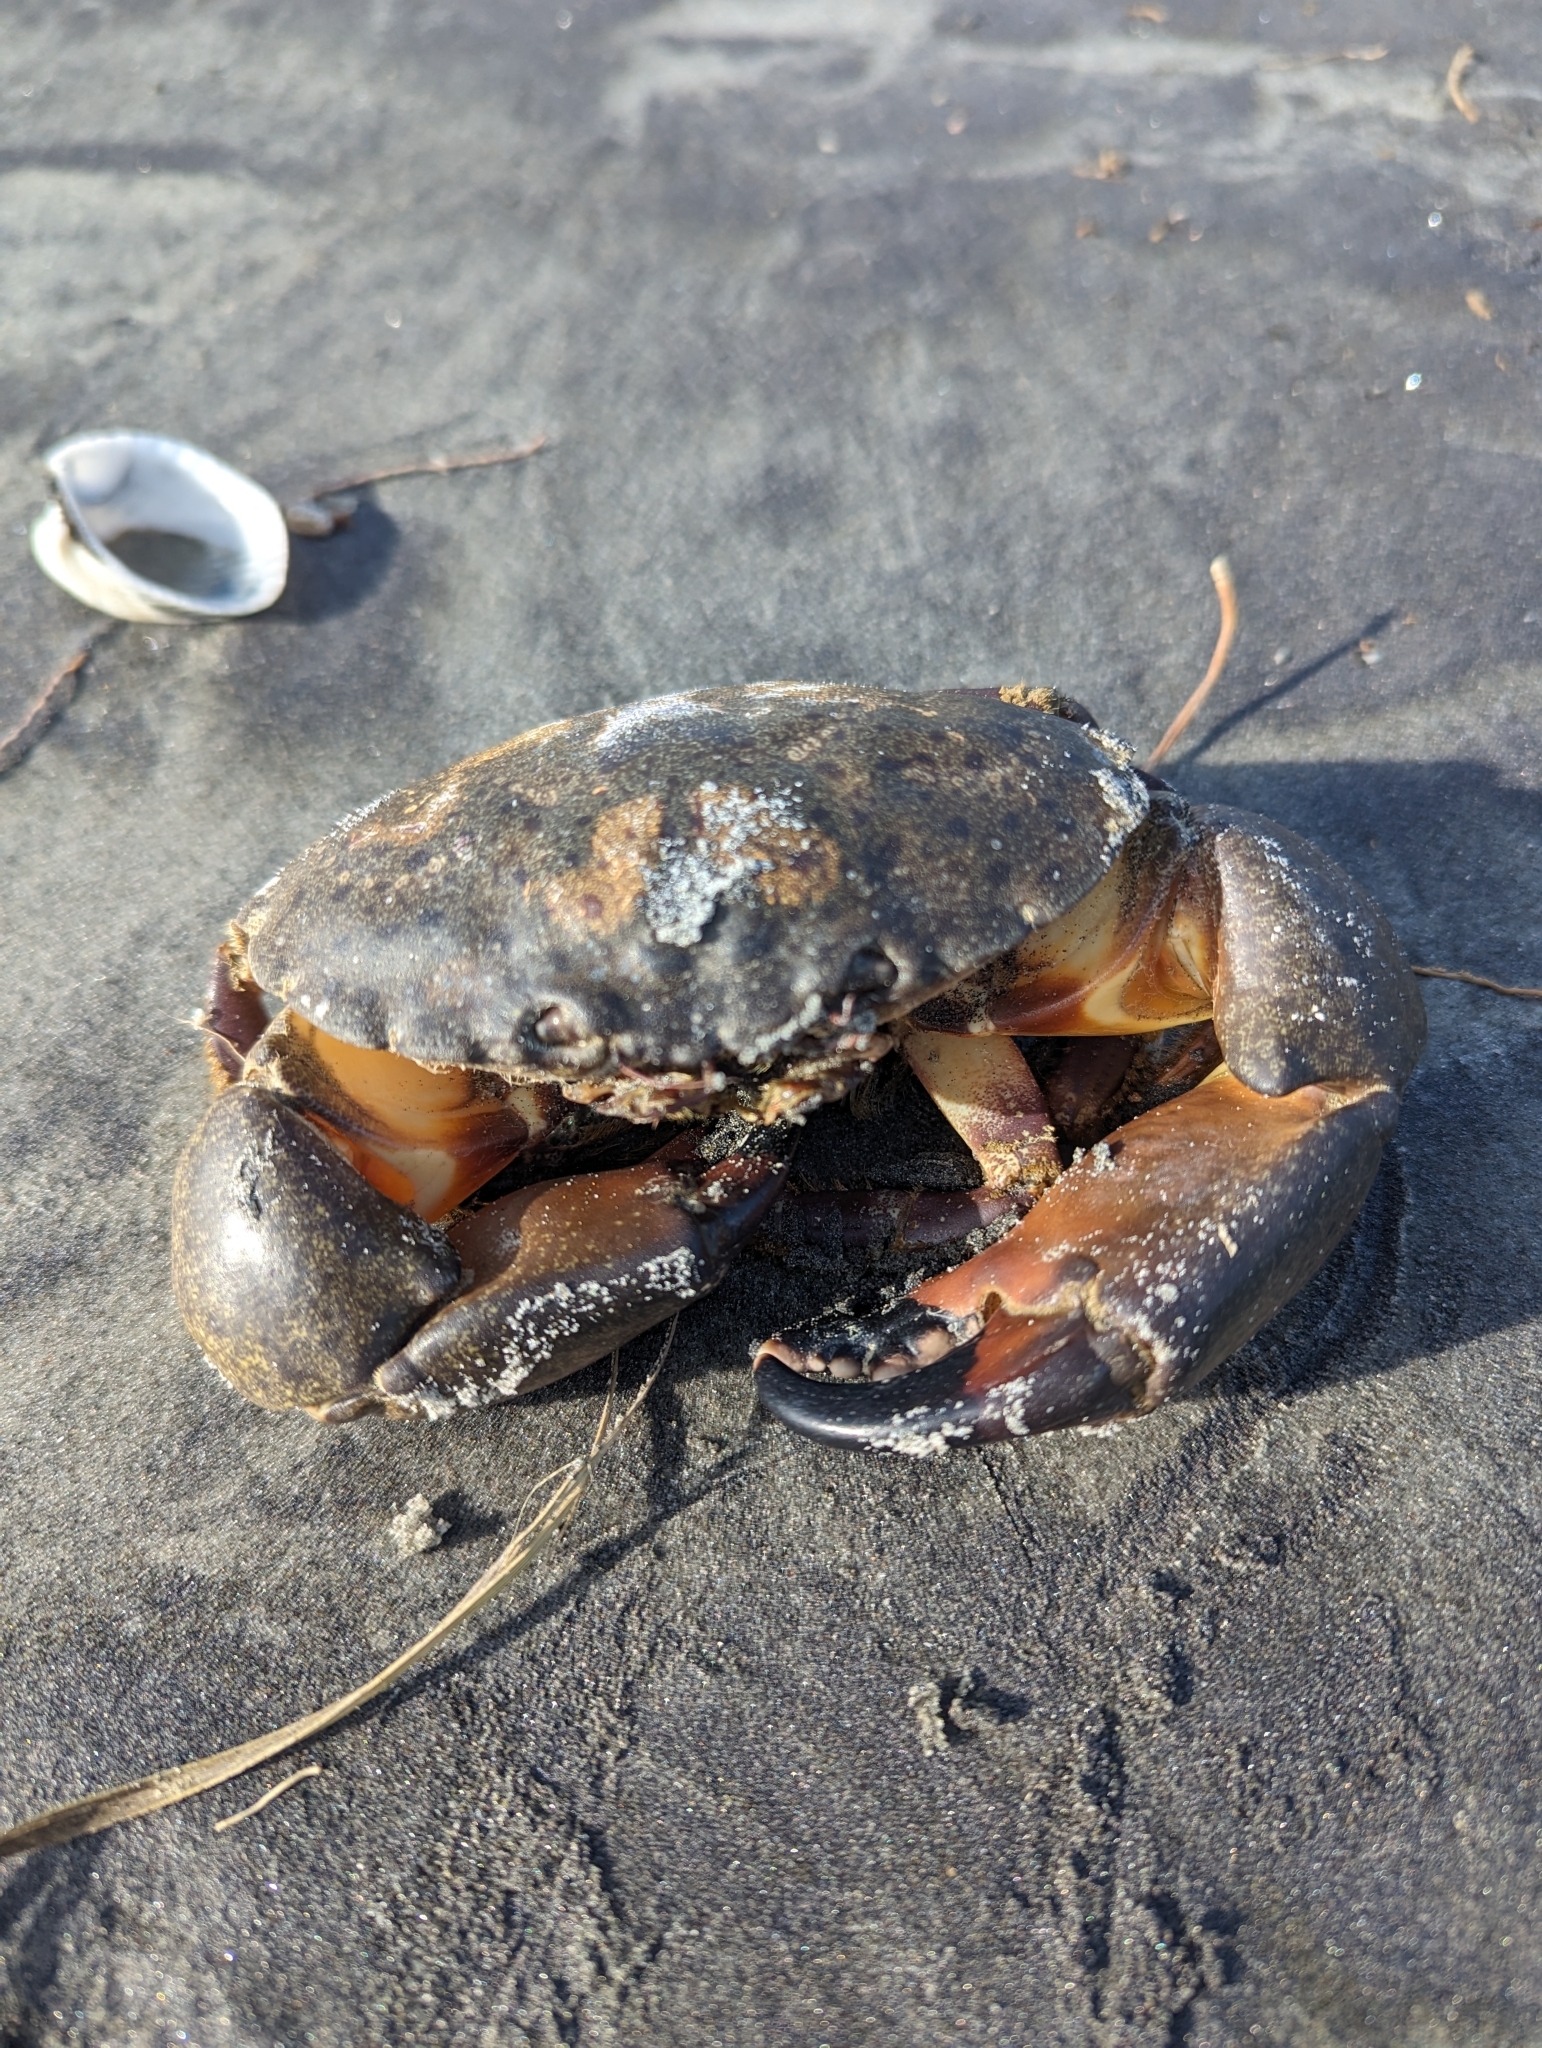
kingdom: Animalia
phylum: Arthropoda
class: Malacostraca
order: Decapoda
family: Menippidae
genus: Menippe
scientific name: Menippe mercenaria
